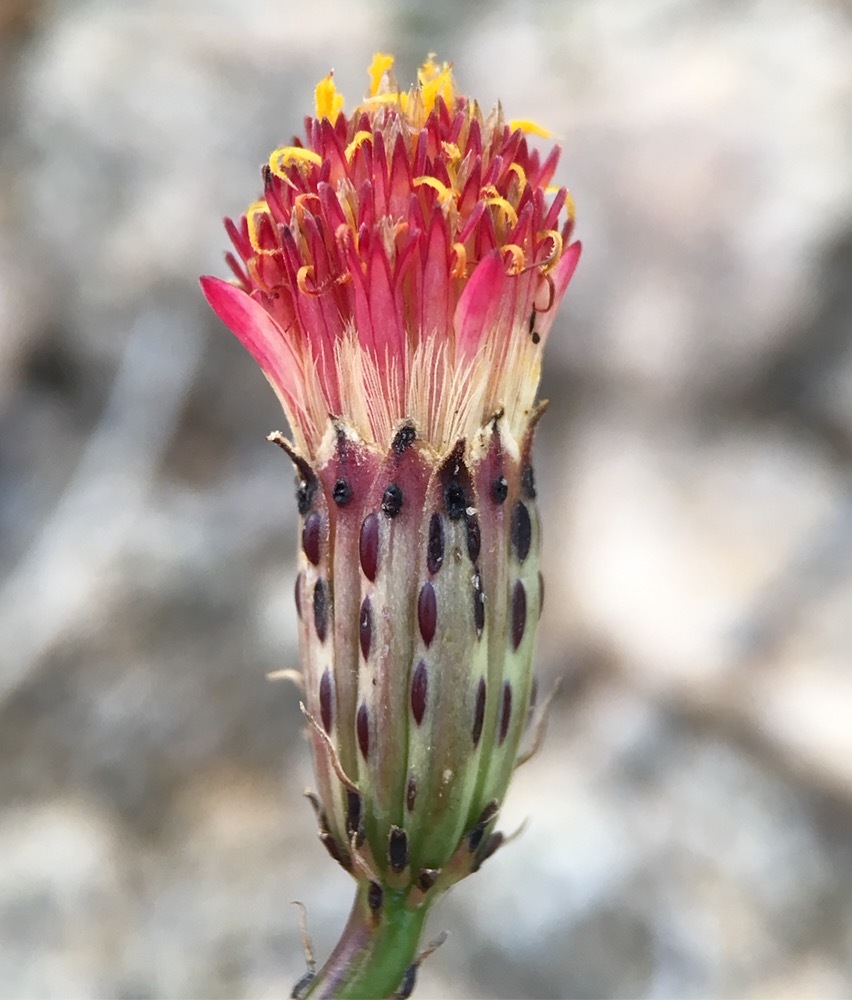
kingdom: Plantae
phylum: Tracheophyta
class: Magnoliopsida
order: Asterales
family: Asteraceae
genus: Adenophyllum
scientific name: Adenophyllum porophylloides
